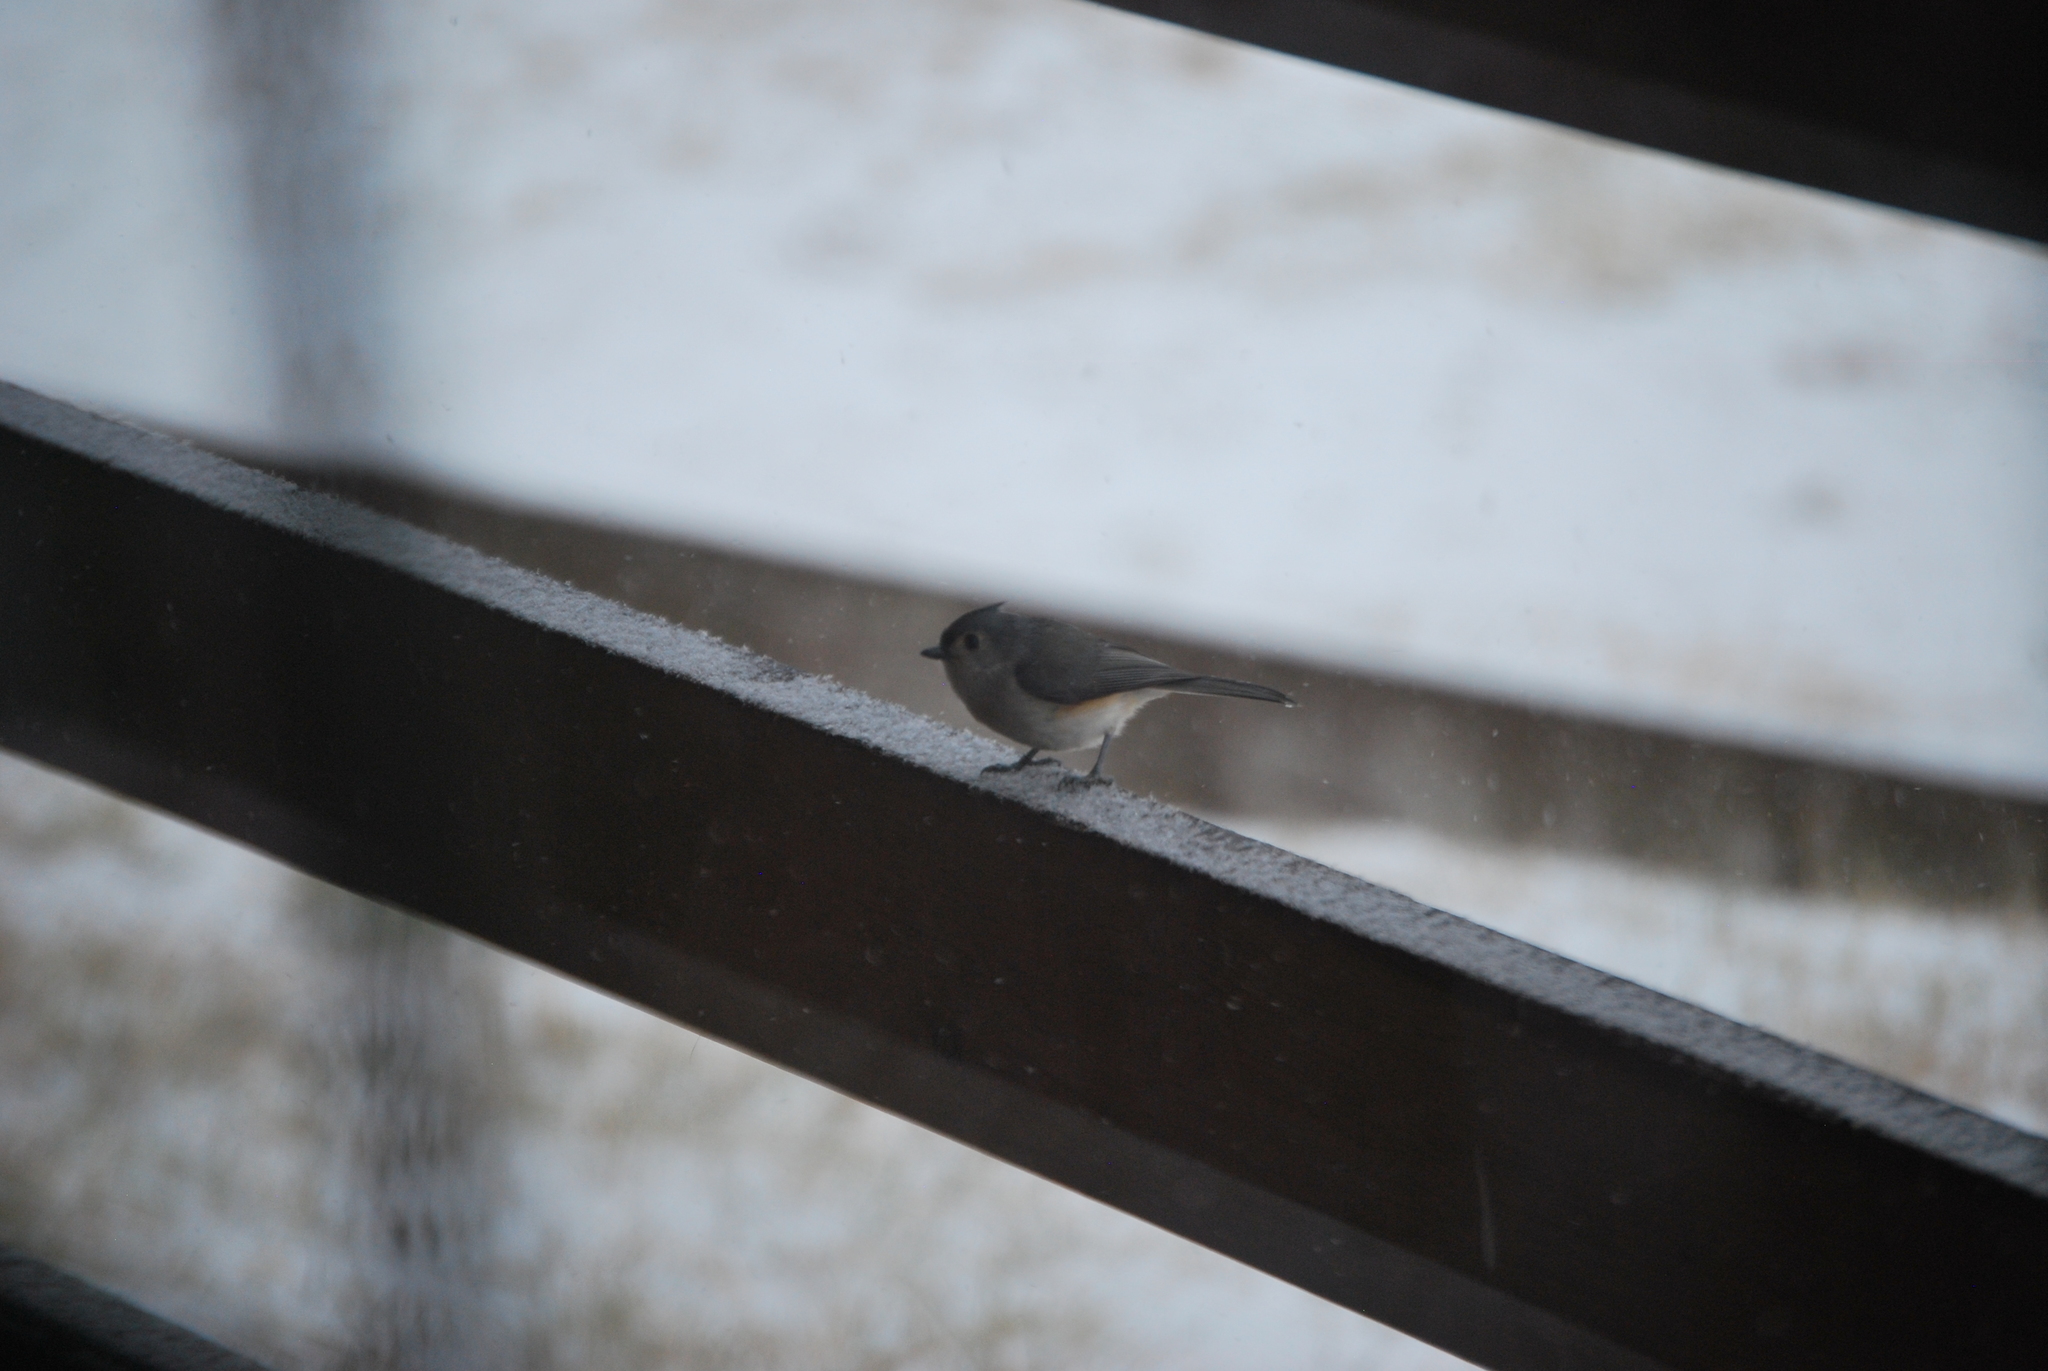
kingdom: Animalia
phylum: Chordata
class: Aves
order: Passeriformes
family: Paridae
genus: Baeolophus
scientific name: Baeolophus bicolor
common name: Tufted titmouse
